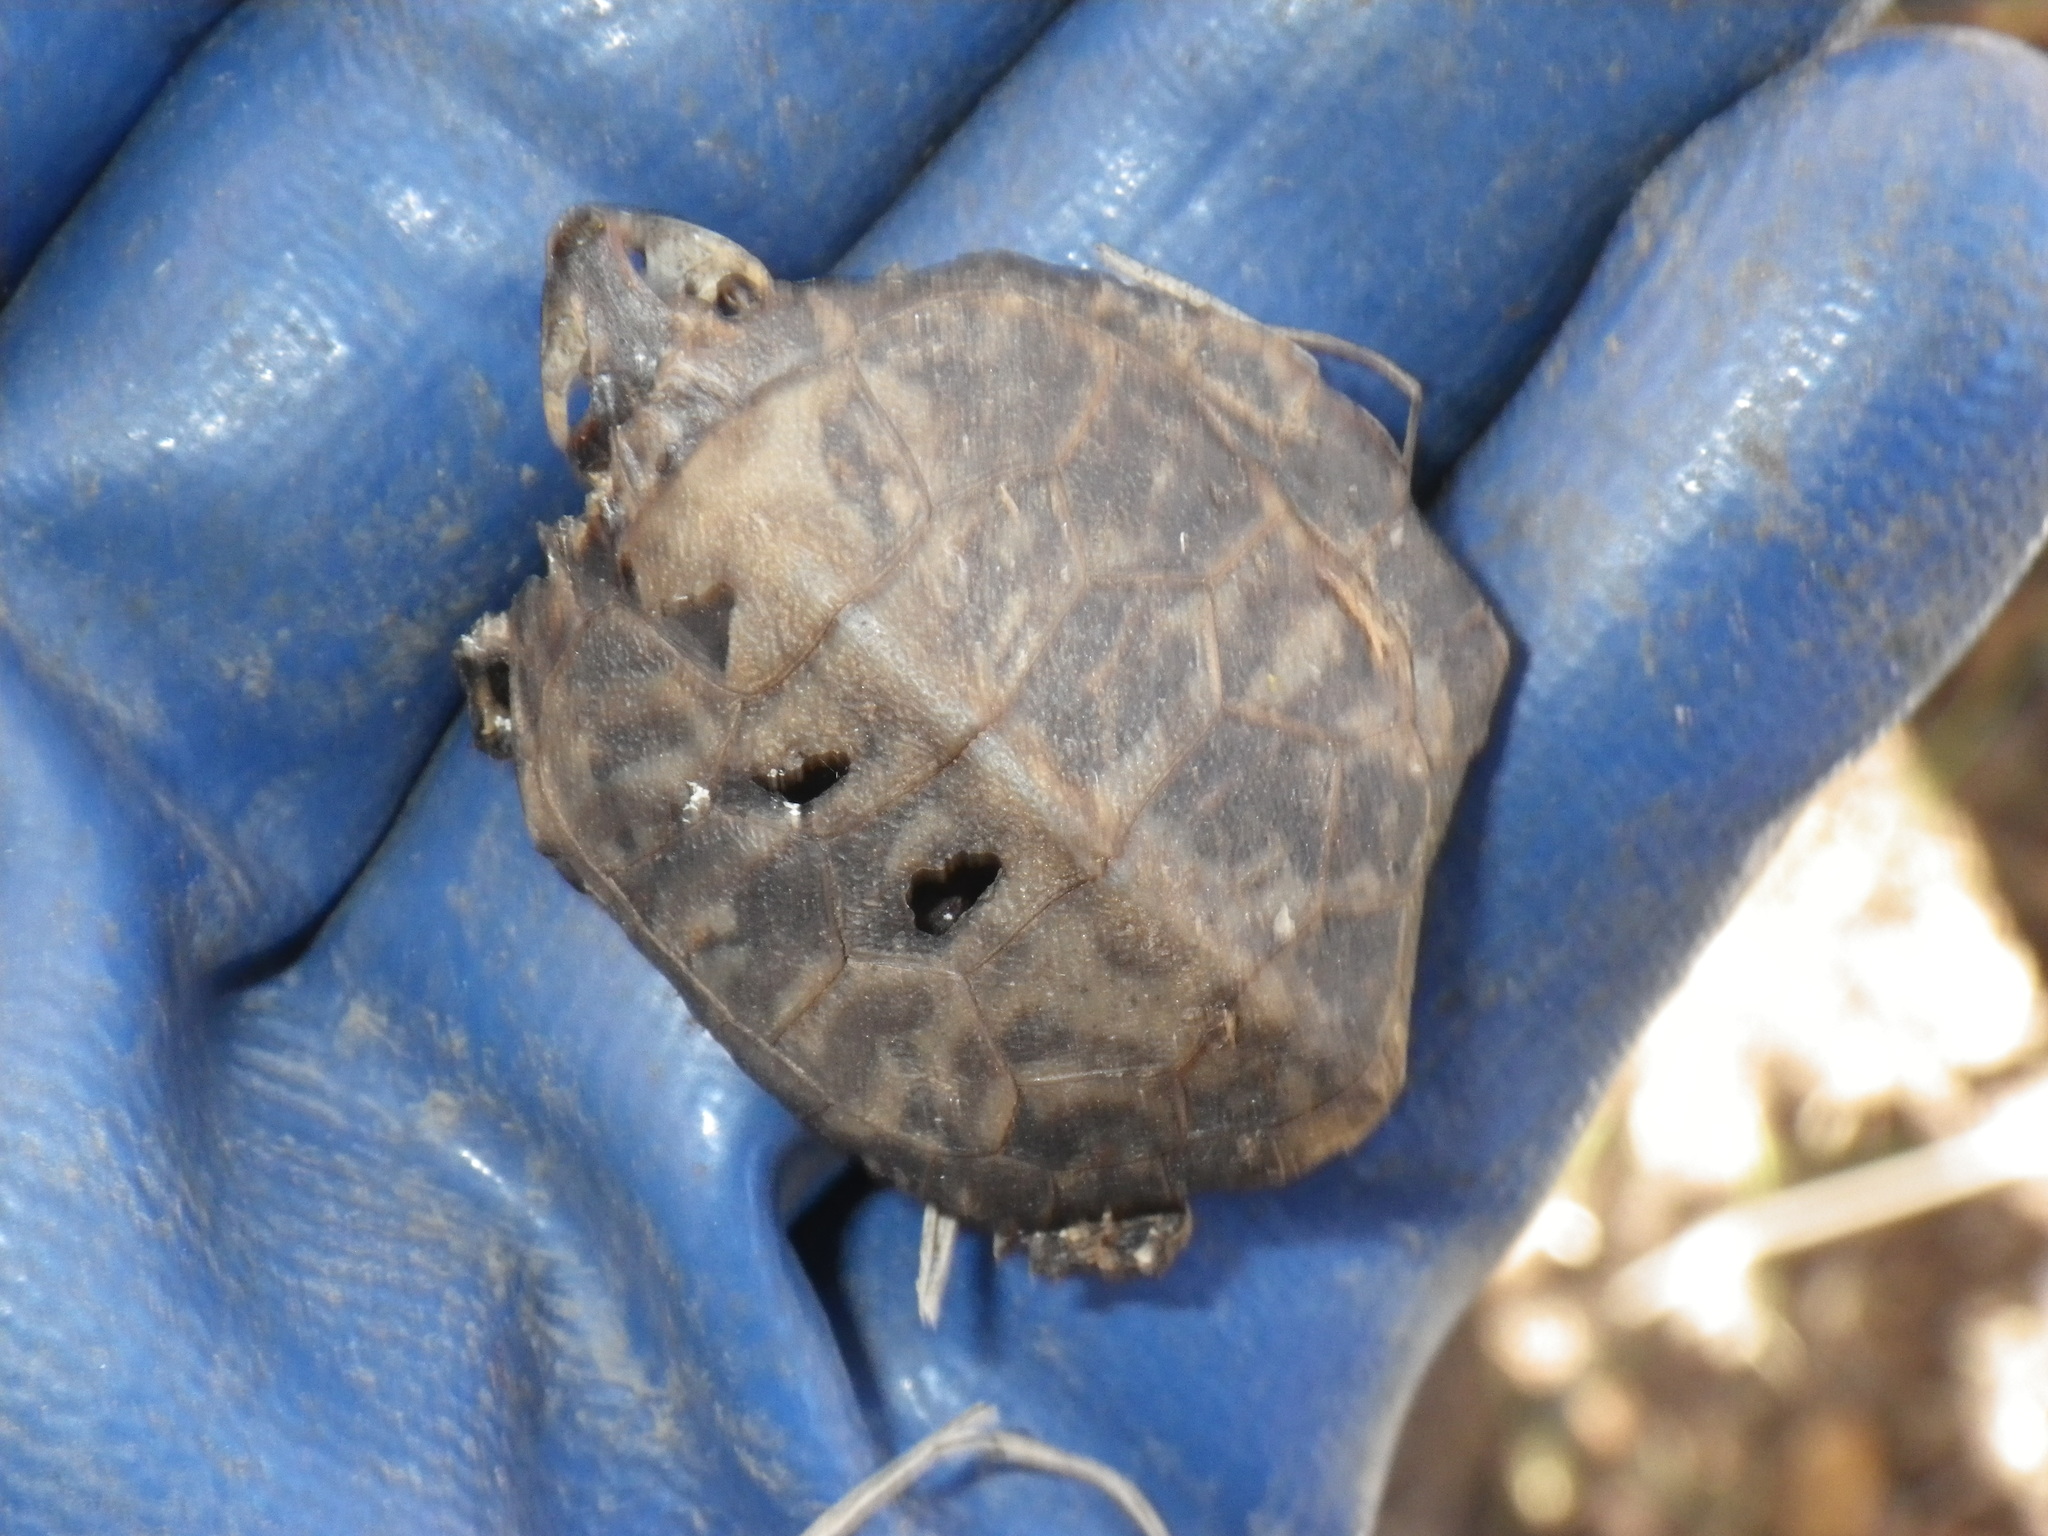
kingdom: Animalia
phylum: Chordata
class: Testudines
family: Emydidae
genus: Trachemys
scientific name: Trachemys scripta
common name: Slider
